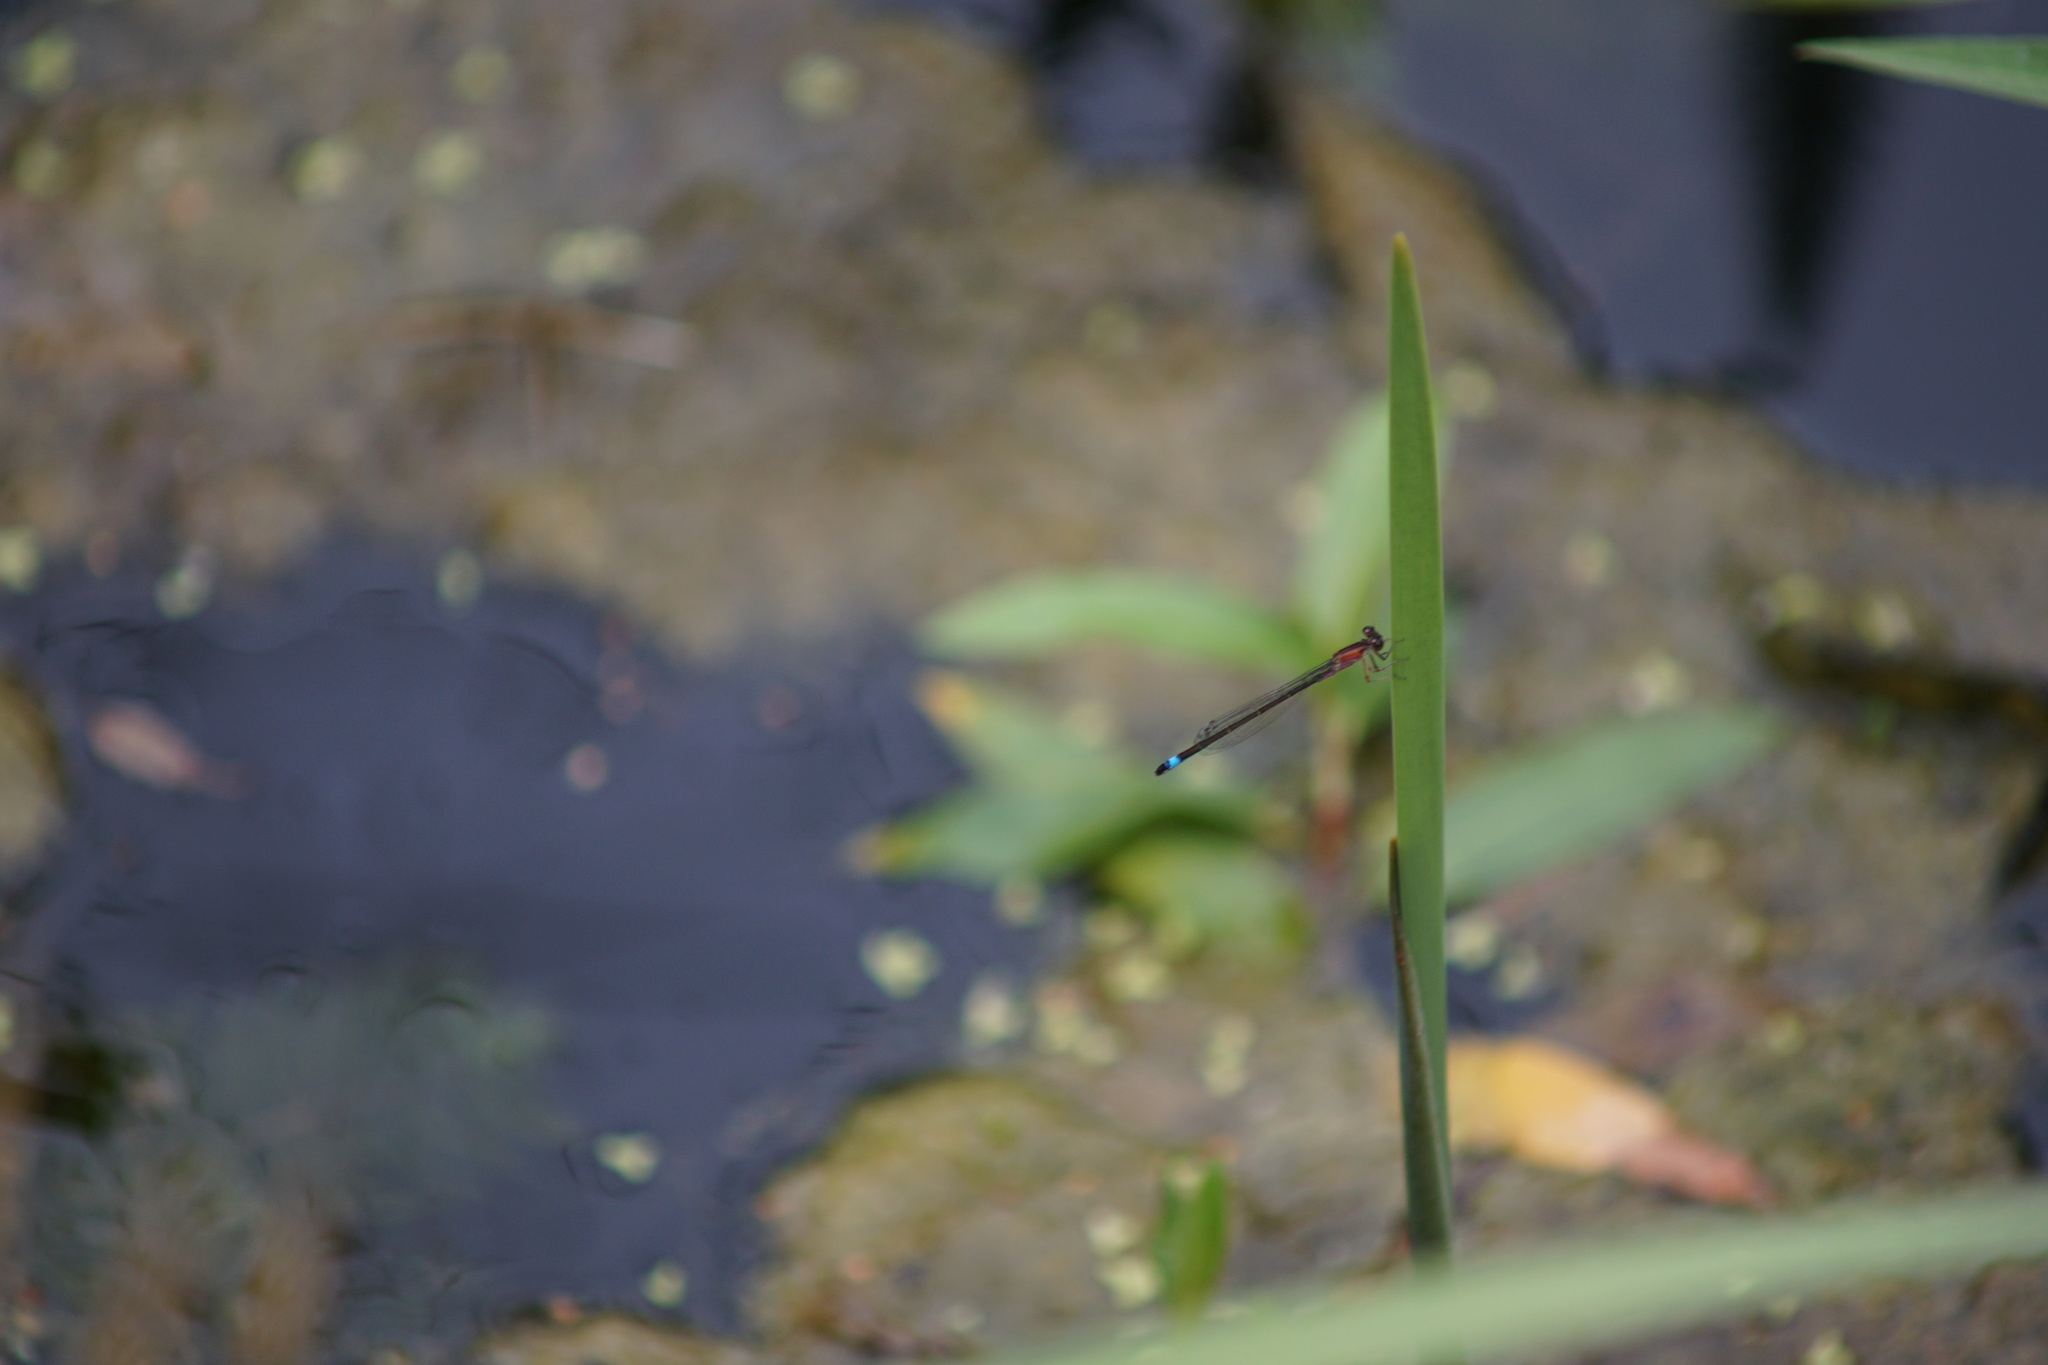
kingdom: Animalia
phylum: Arthropoda
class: Insecta
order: Odonata
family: Coenagrionidae
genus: Ischnura
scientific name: Ischnura elegans
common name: Blue-tailed damselfly
